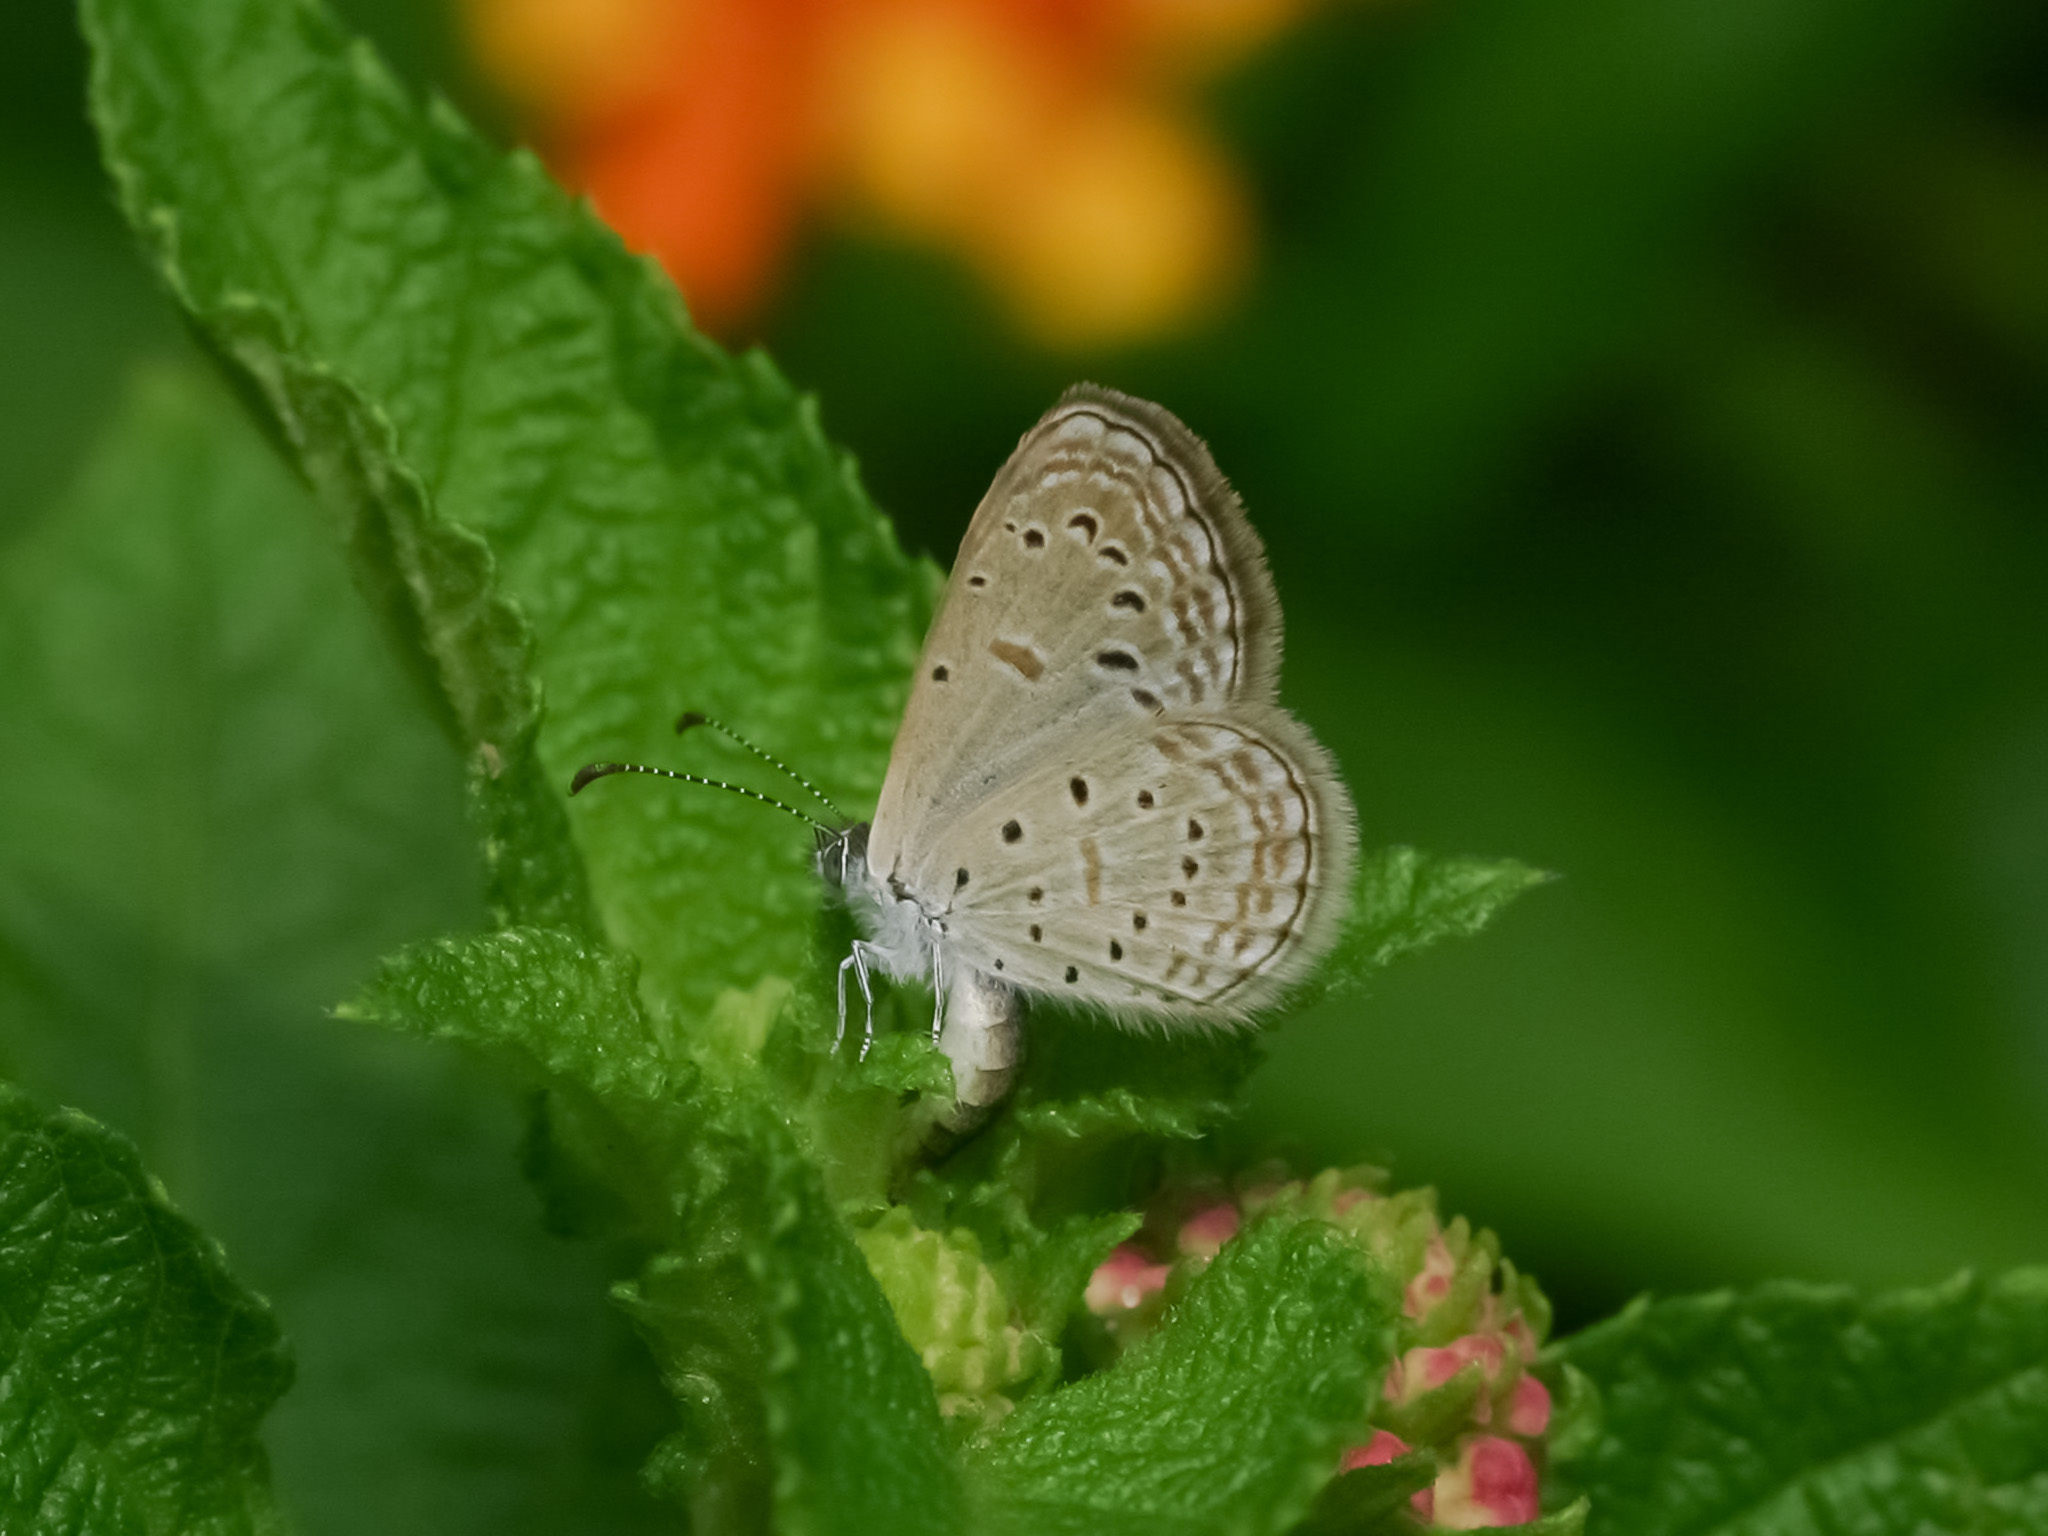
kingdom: Animalia
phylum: Arthropoda
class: Insecta
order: Lepidoptera
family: Lycaenidae
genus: Zizula
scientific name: Zizula hylax
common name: Gaika blue
